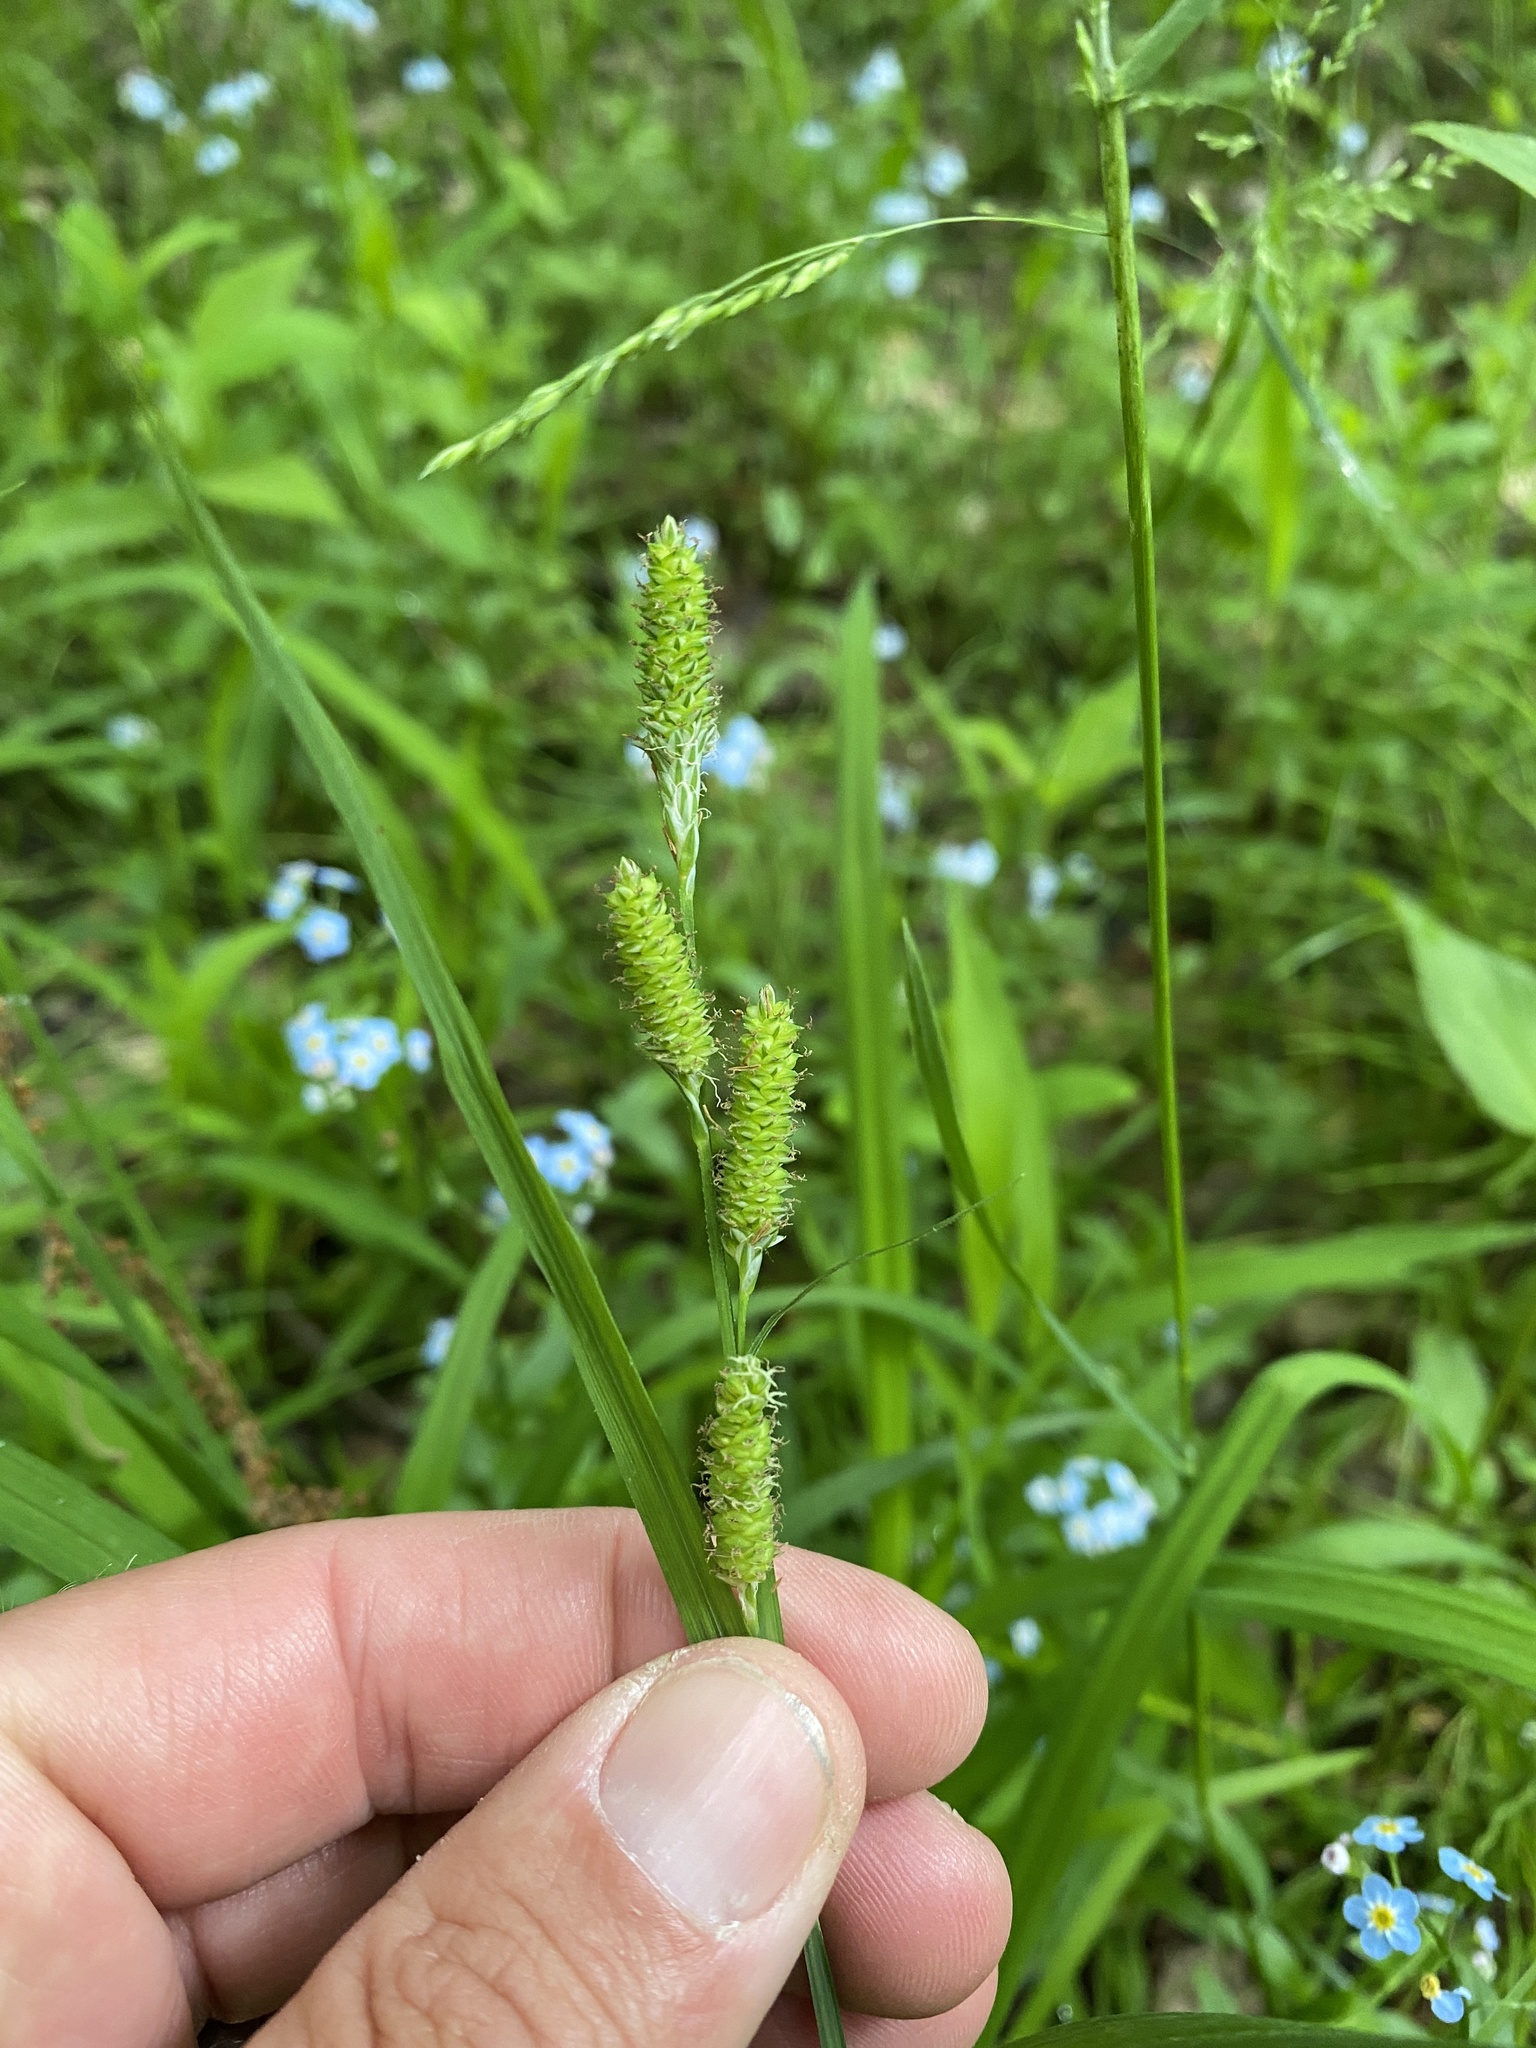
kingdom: Plantae
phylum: Tracheophyta
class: Liliopsida
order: Poales
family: Cyperaceae
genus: Carex
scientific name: Carex shortiana
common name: Short's sedge
